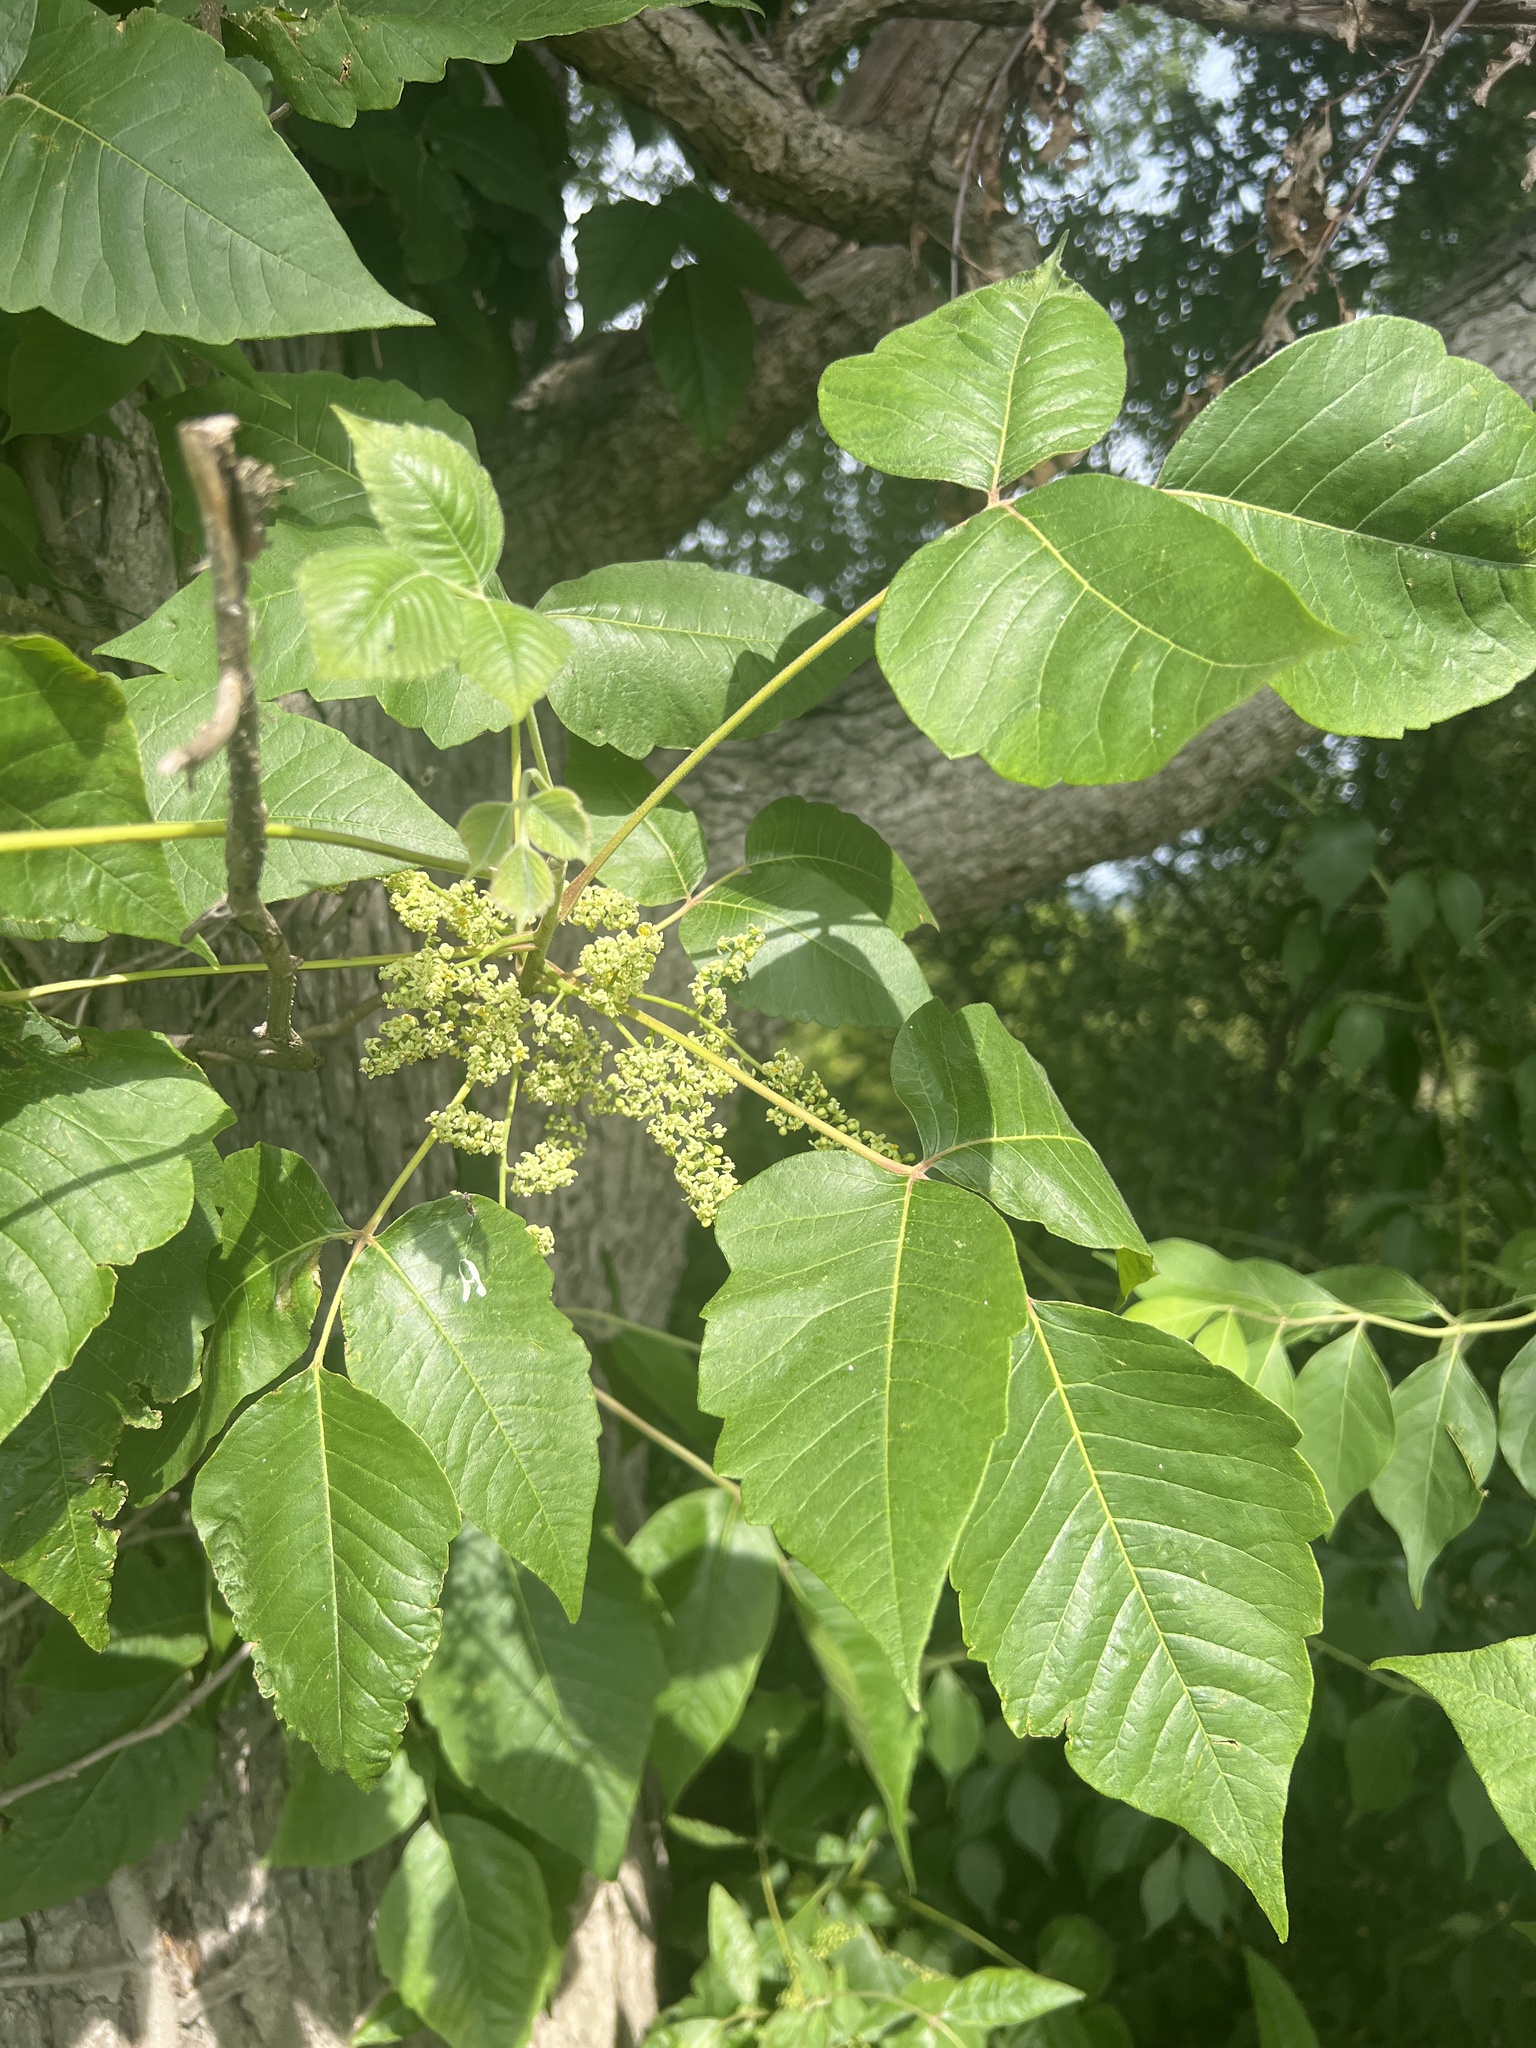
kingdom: Plantae
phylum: Tracheophyta
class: Magnoliopsida
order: Sapindales
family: Anacardiaceae
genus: Toxicodendron
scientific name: Toxicodendron radicans
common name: Poison ivy
